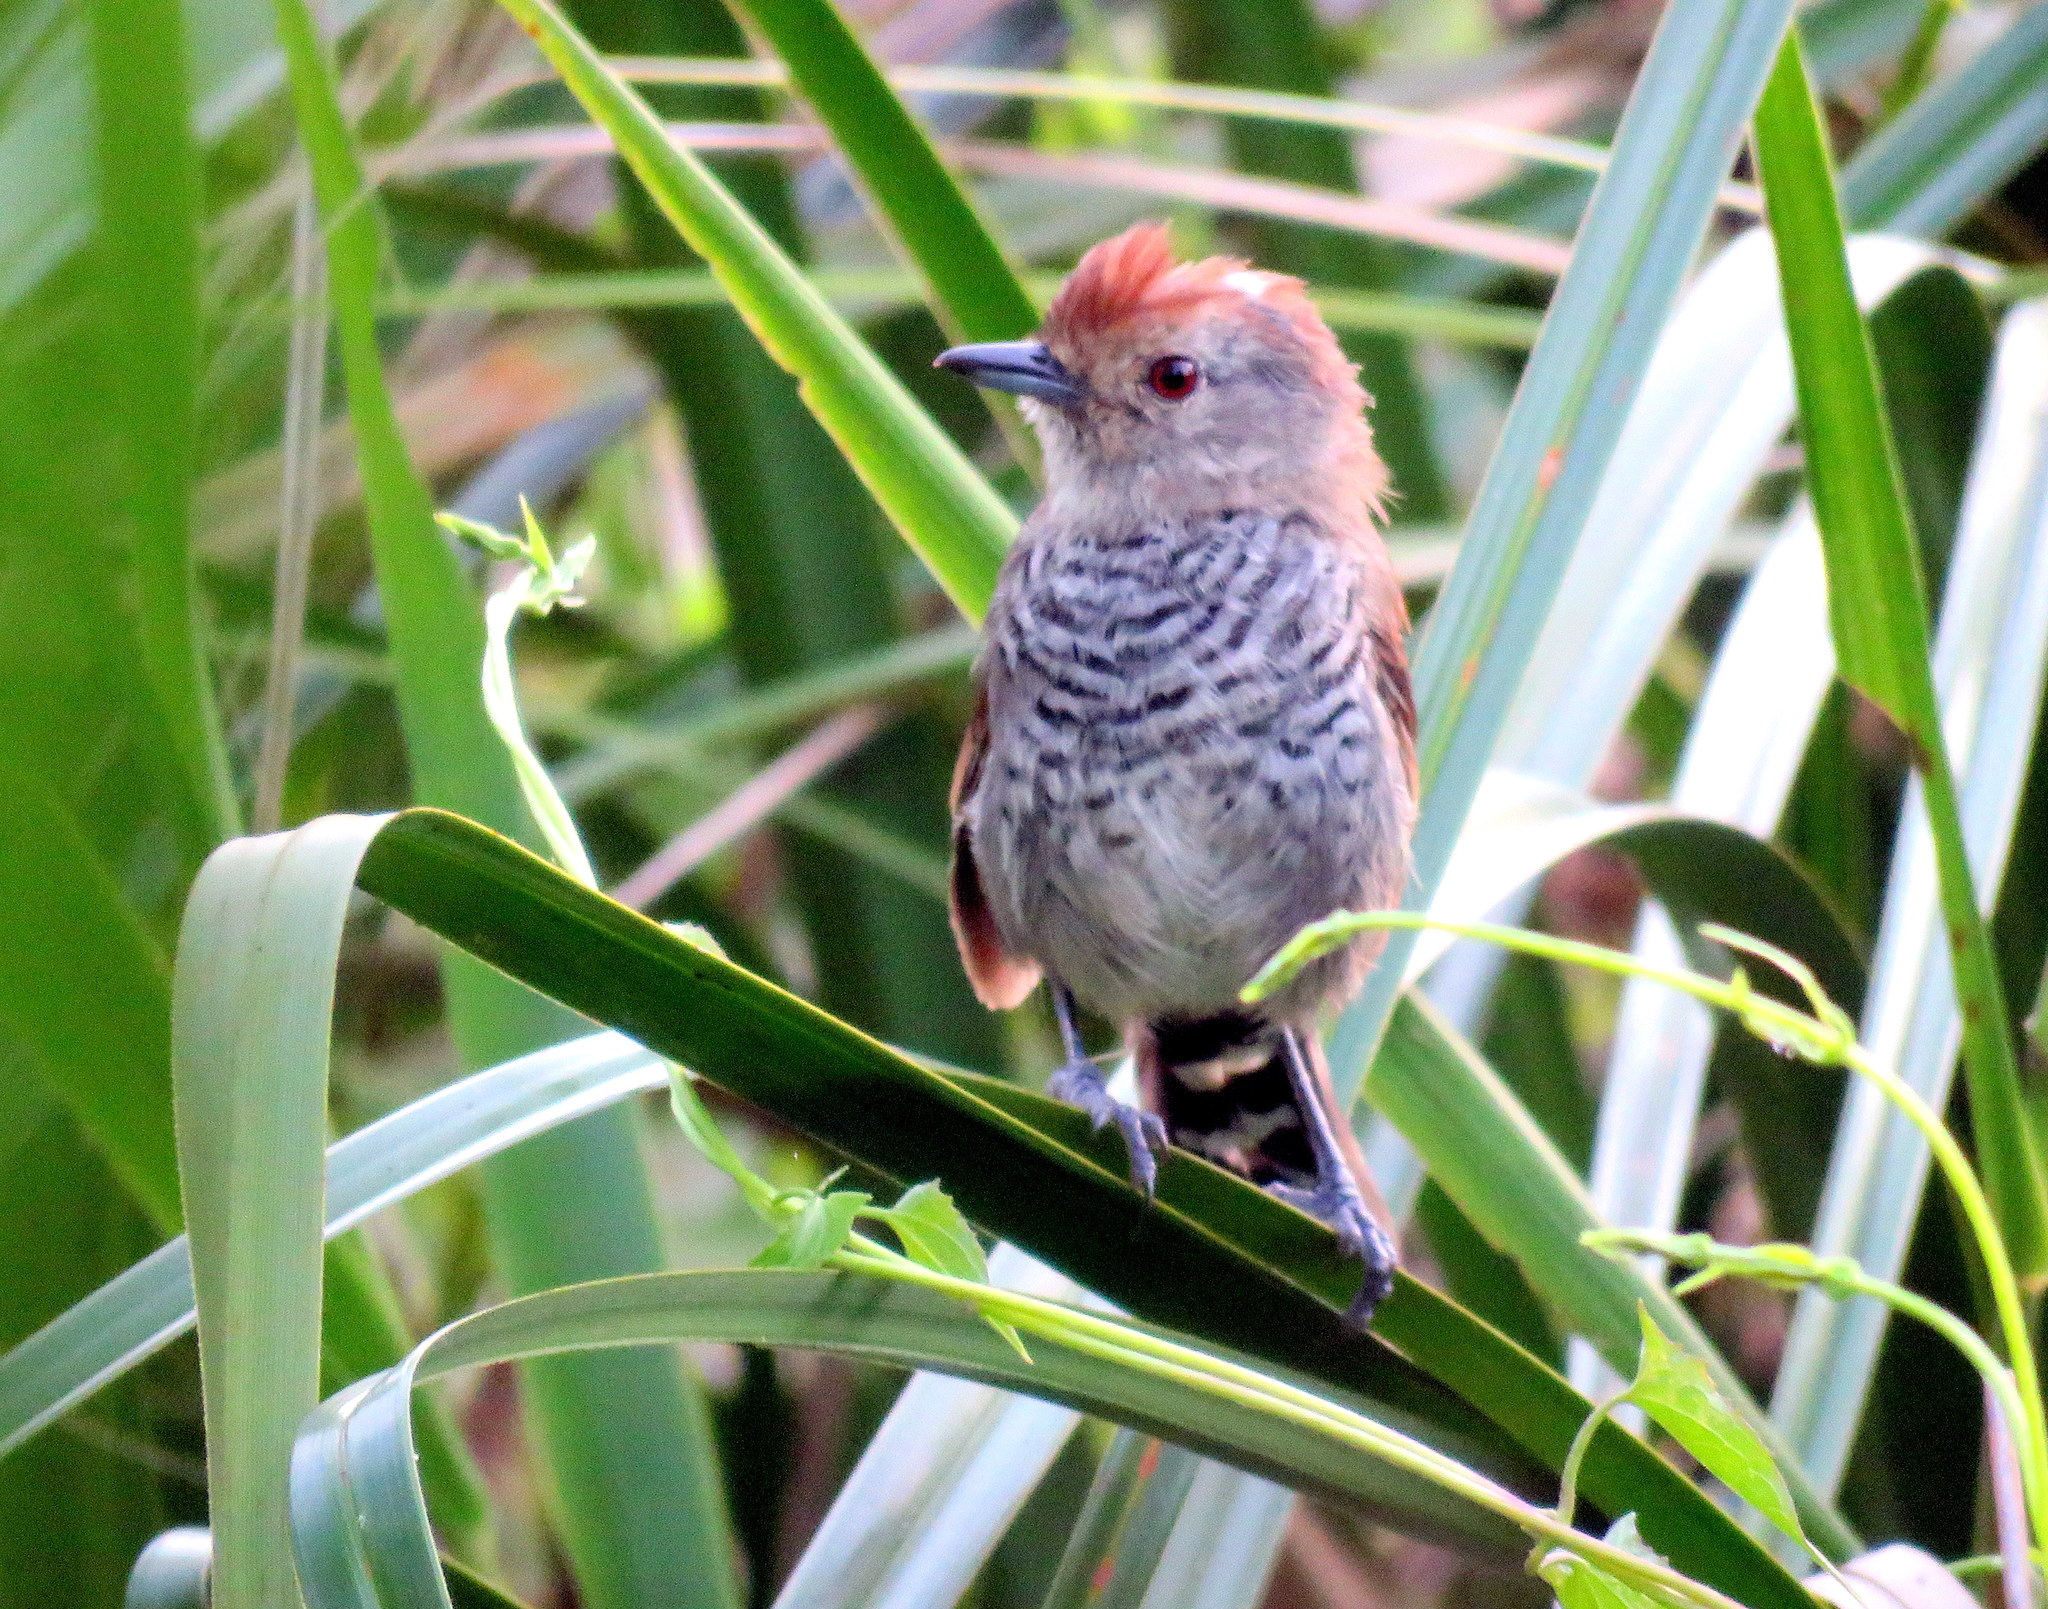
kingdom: Animalia
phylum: Chordata
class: Aves
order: Passeriformes
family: Thamnophilidae
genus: Thamnophilus
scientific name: Thamnophilus ruficapillus
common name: Rufous-capped antshrike
